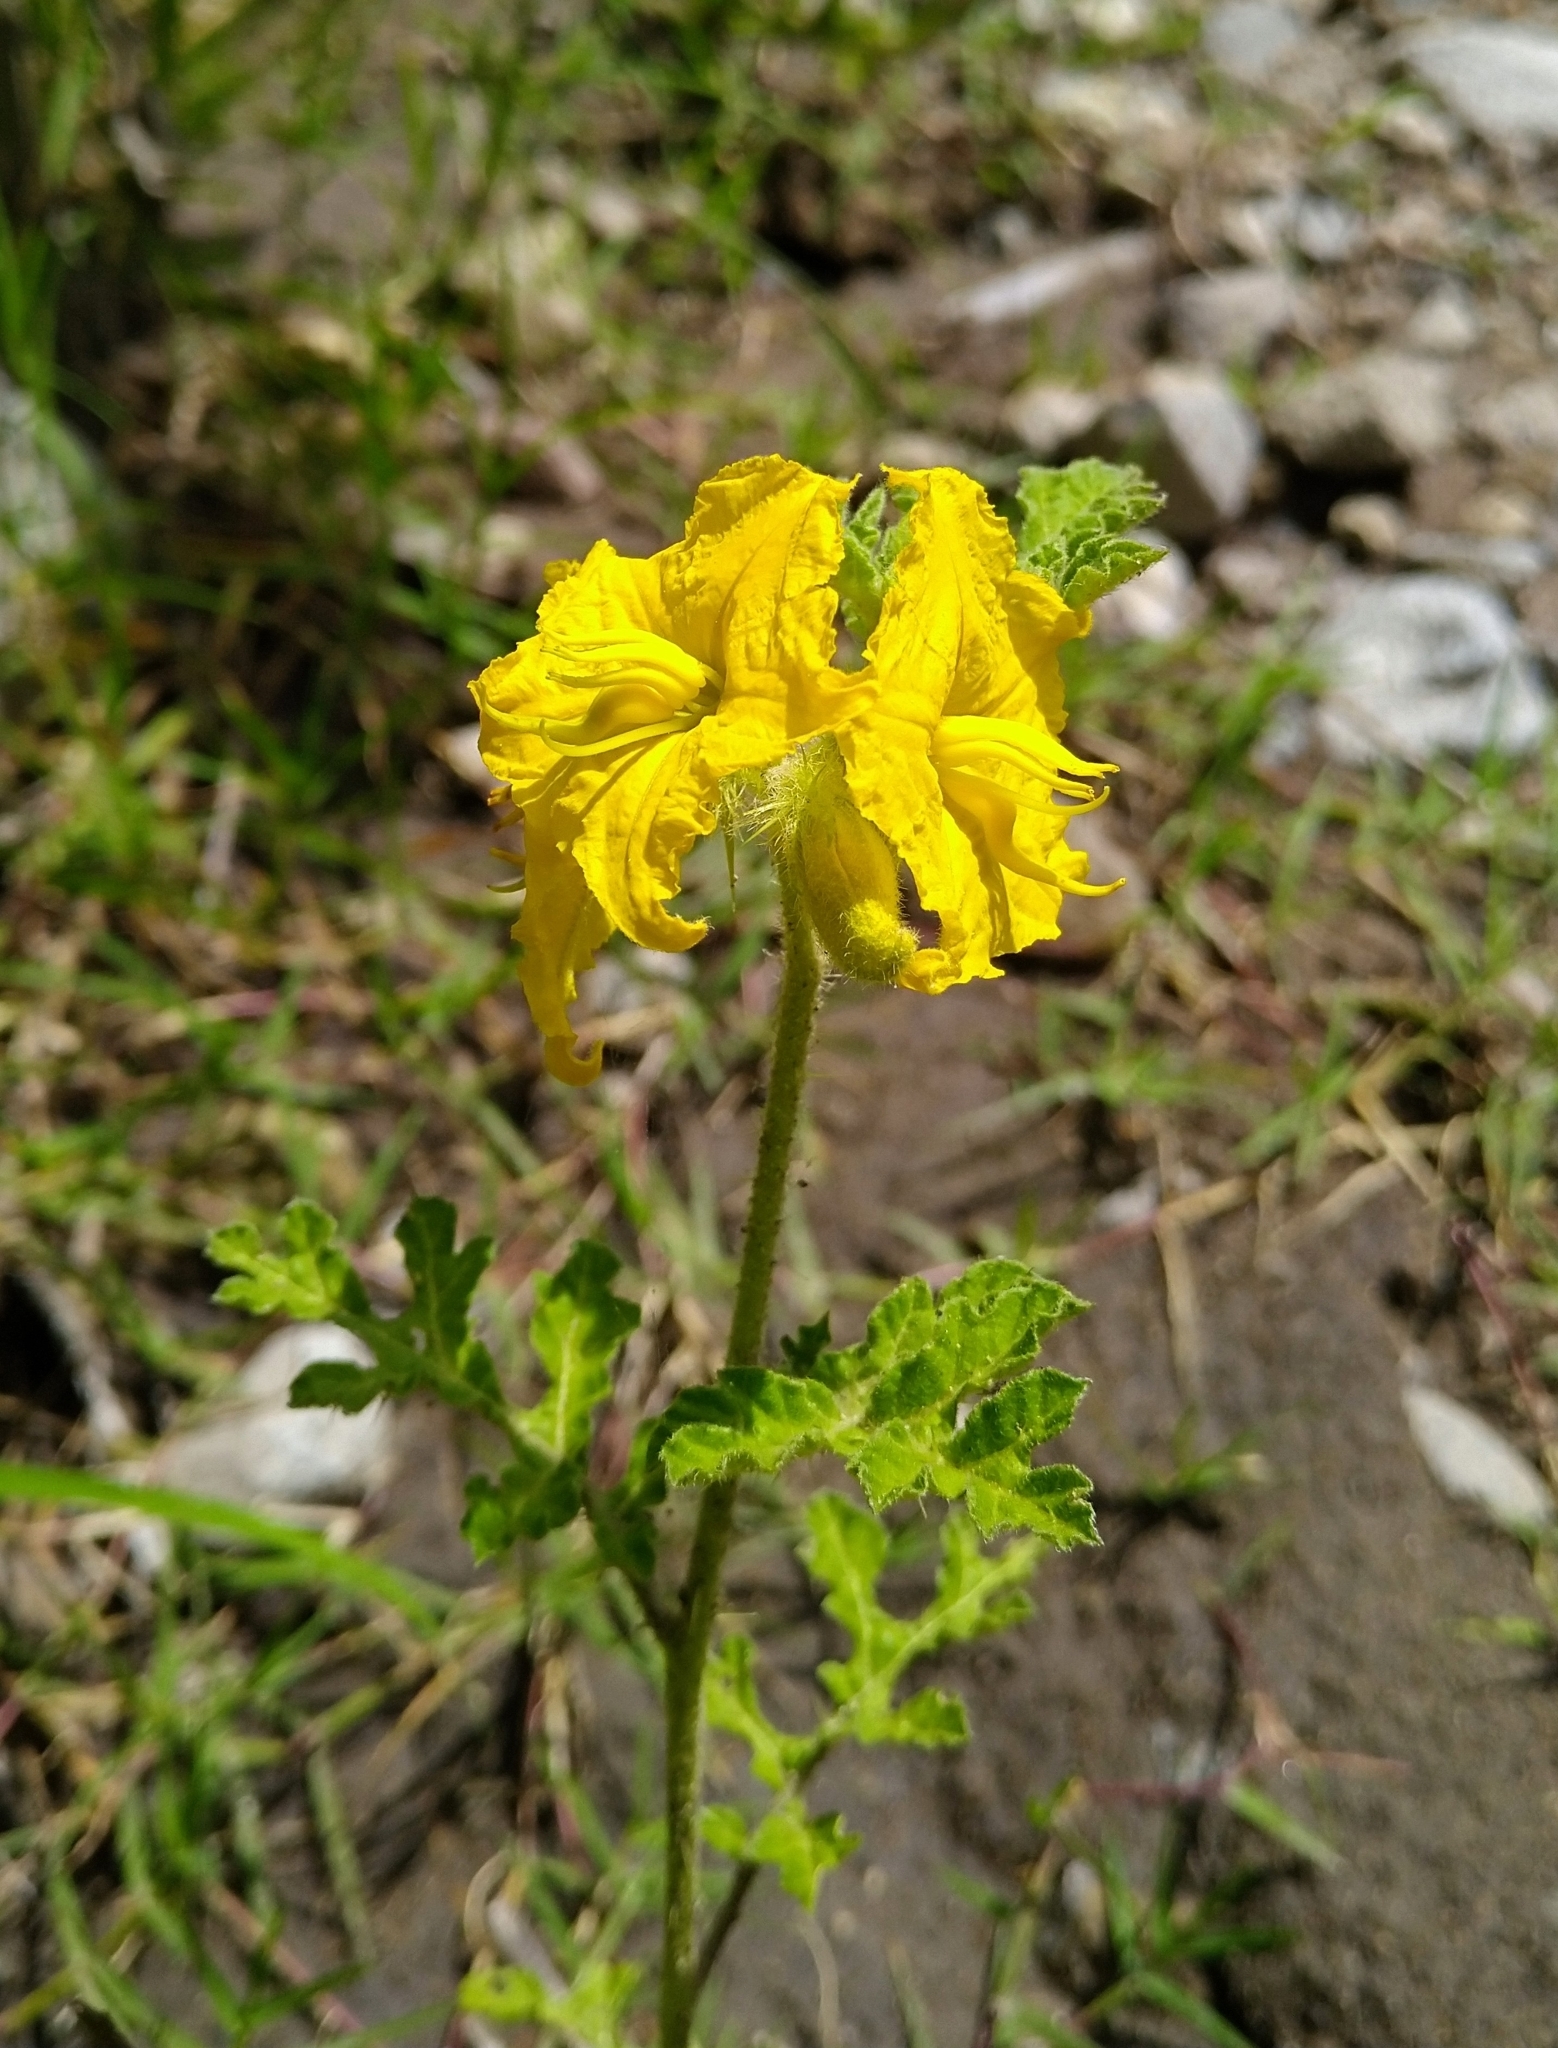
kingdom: Plantae
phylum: Tracheophyta
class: Magnoliopsida
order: Solanales
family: Solanaceae
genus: Solanum
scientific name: Solanum angustifolium
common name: Buffalobur nightshade
